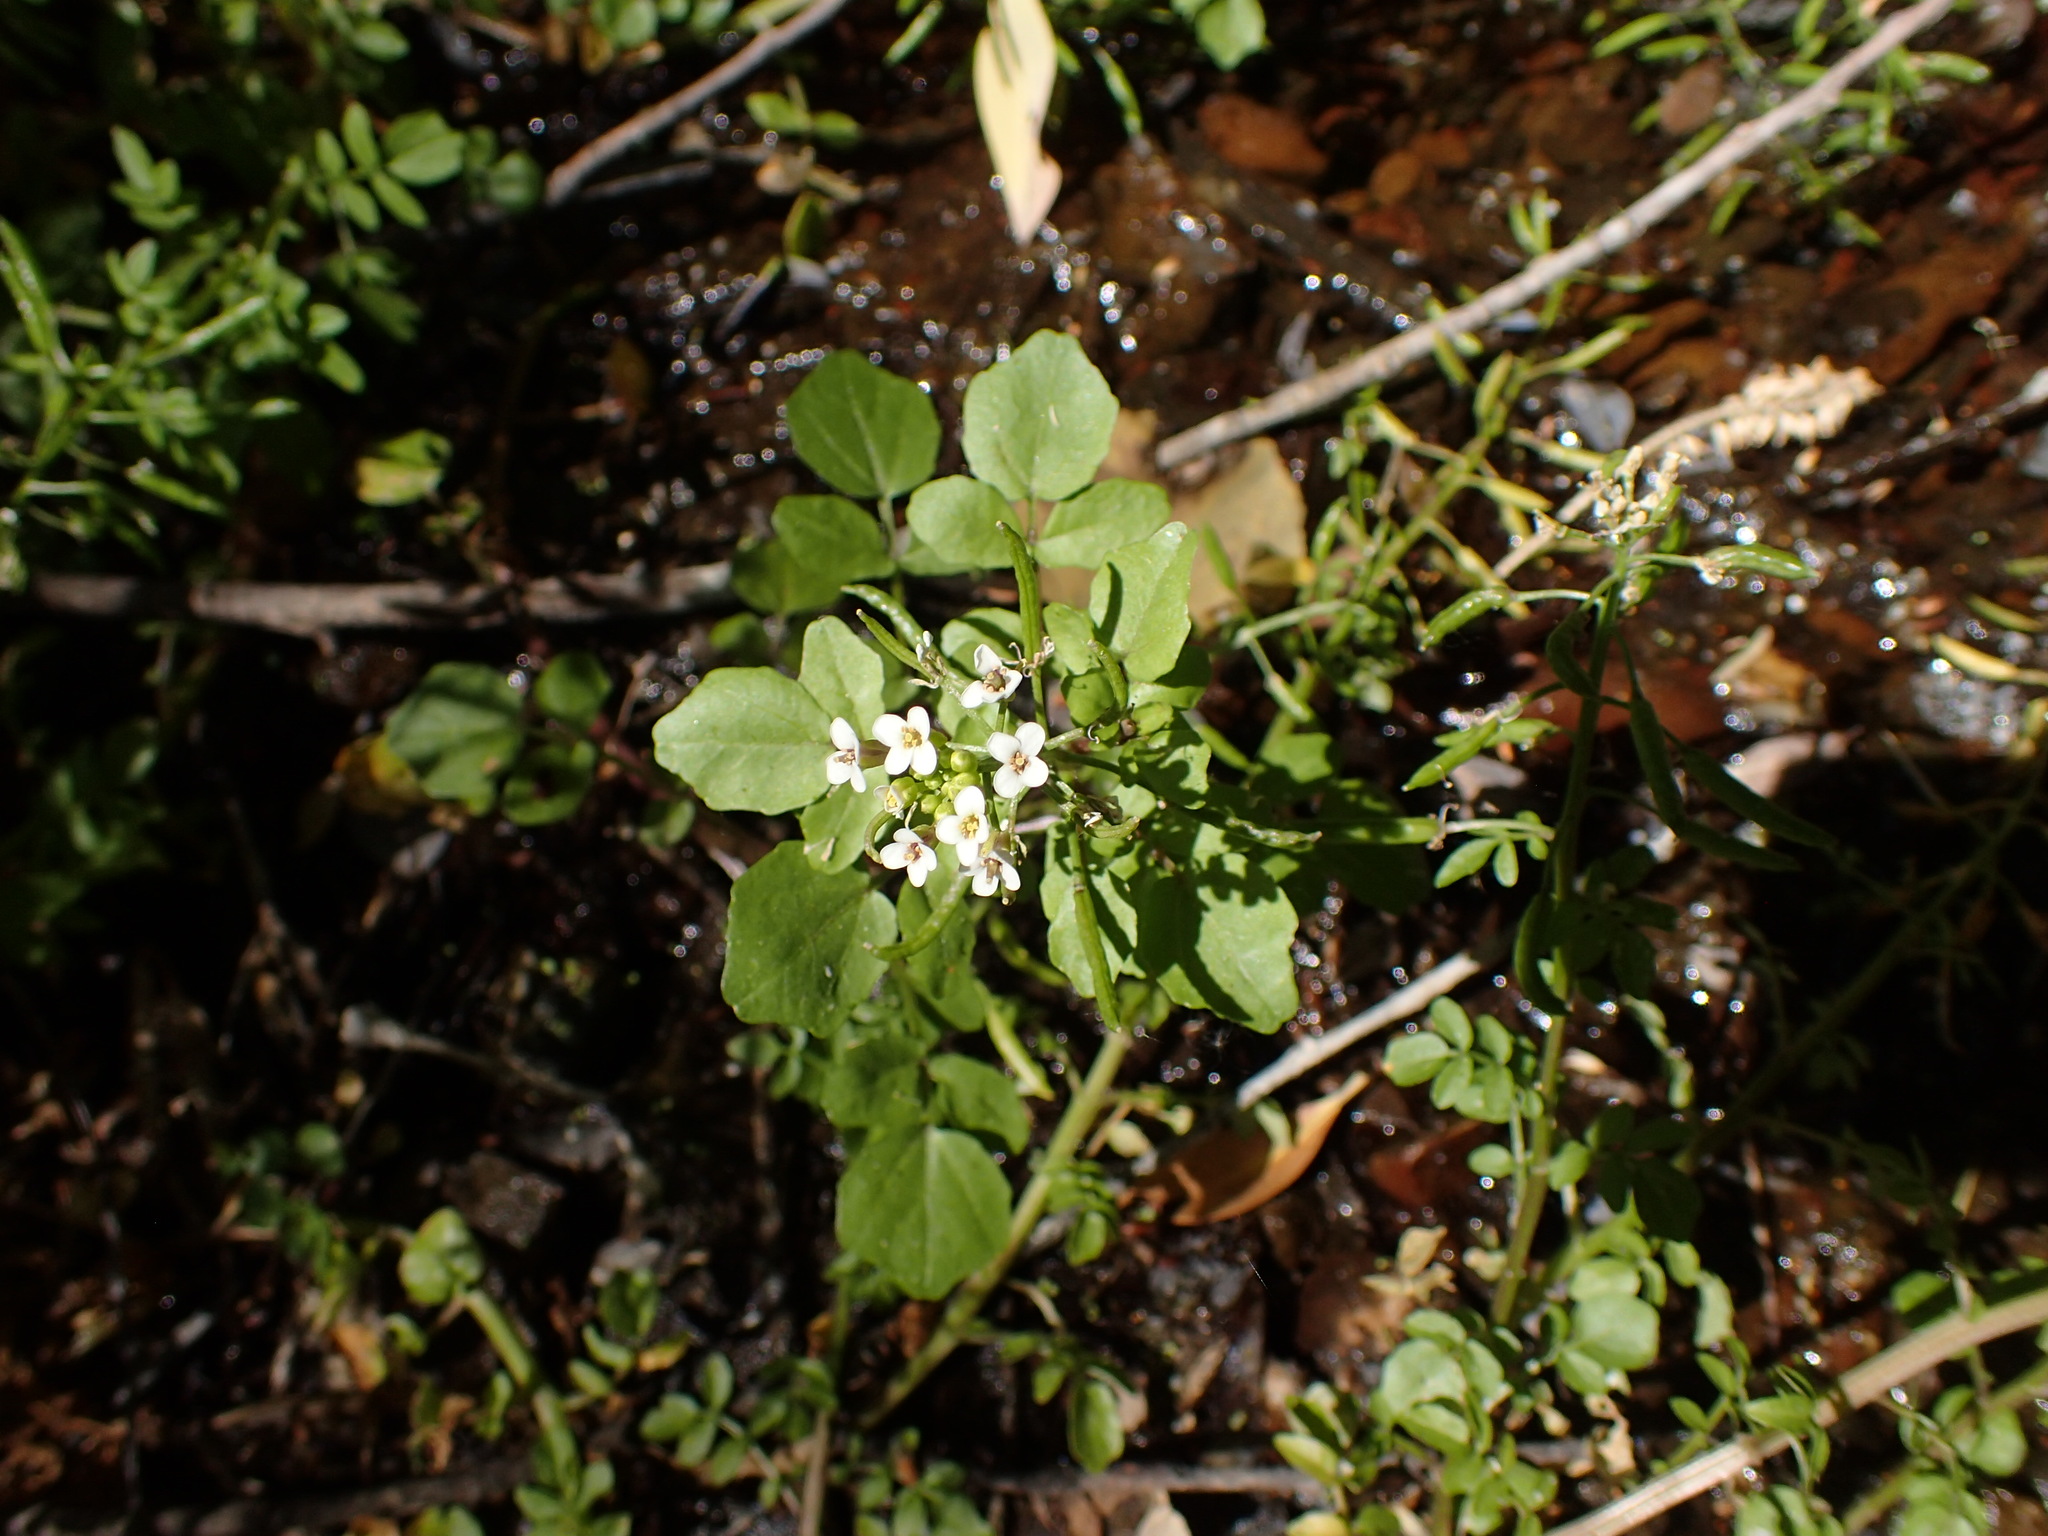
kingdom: Plantae
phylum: Tracheophyta
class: Magnoliopsida
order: Brassicales
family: Brassicaceae
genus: Nasturtium
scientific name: Nasturtium officinale
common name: Watercress
